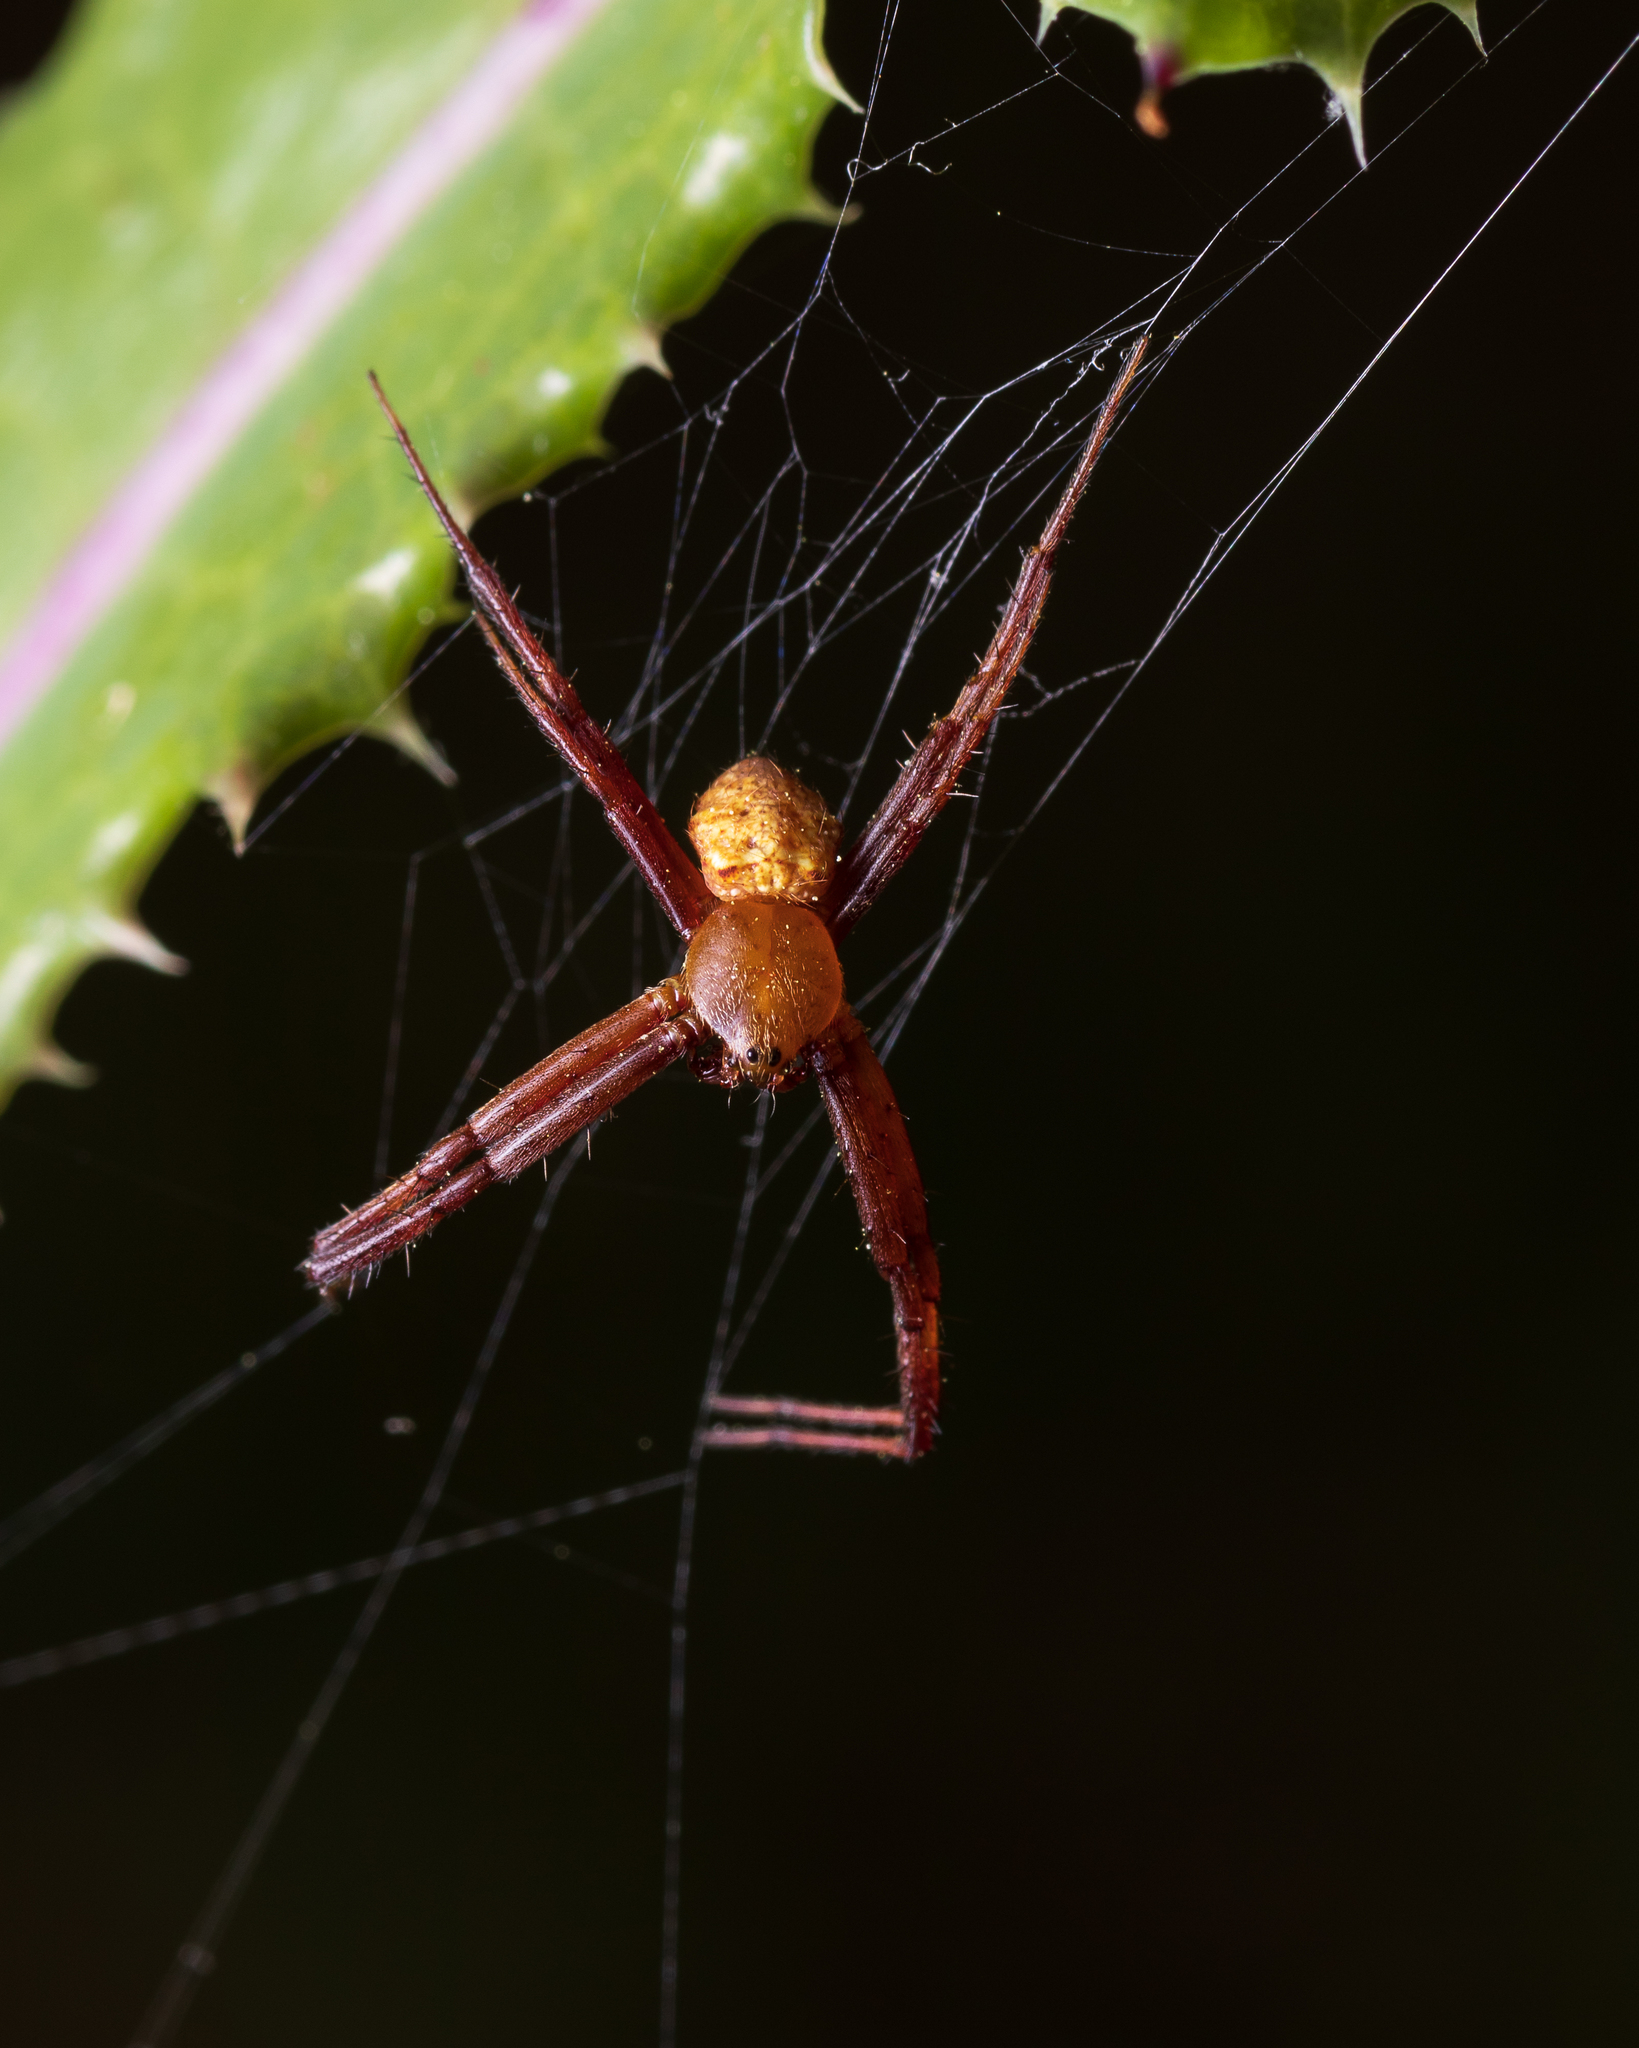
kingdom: Animalia
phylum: Arthropoda
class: Arachnida
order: Araneae
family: Araneidae
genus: Gea
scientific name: Gea heptagon
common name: Orb weavers
